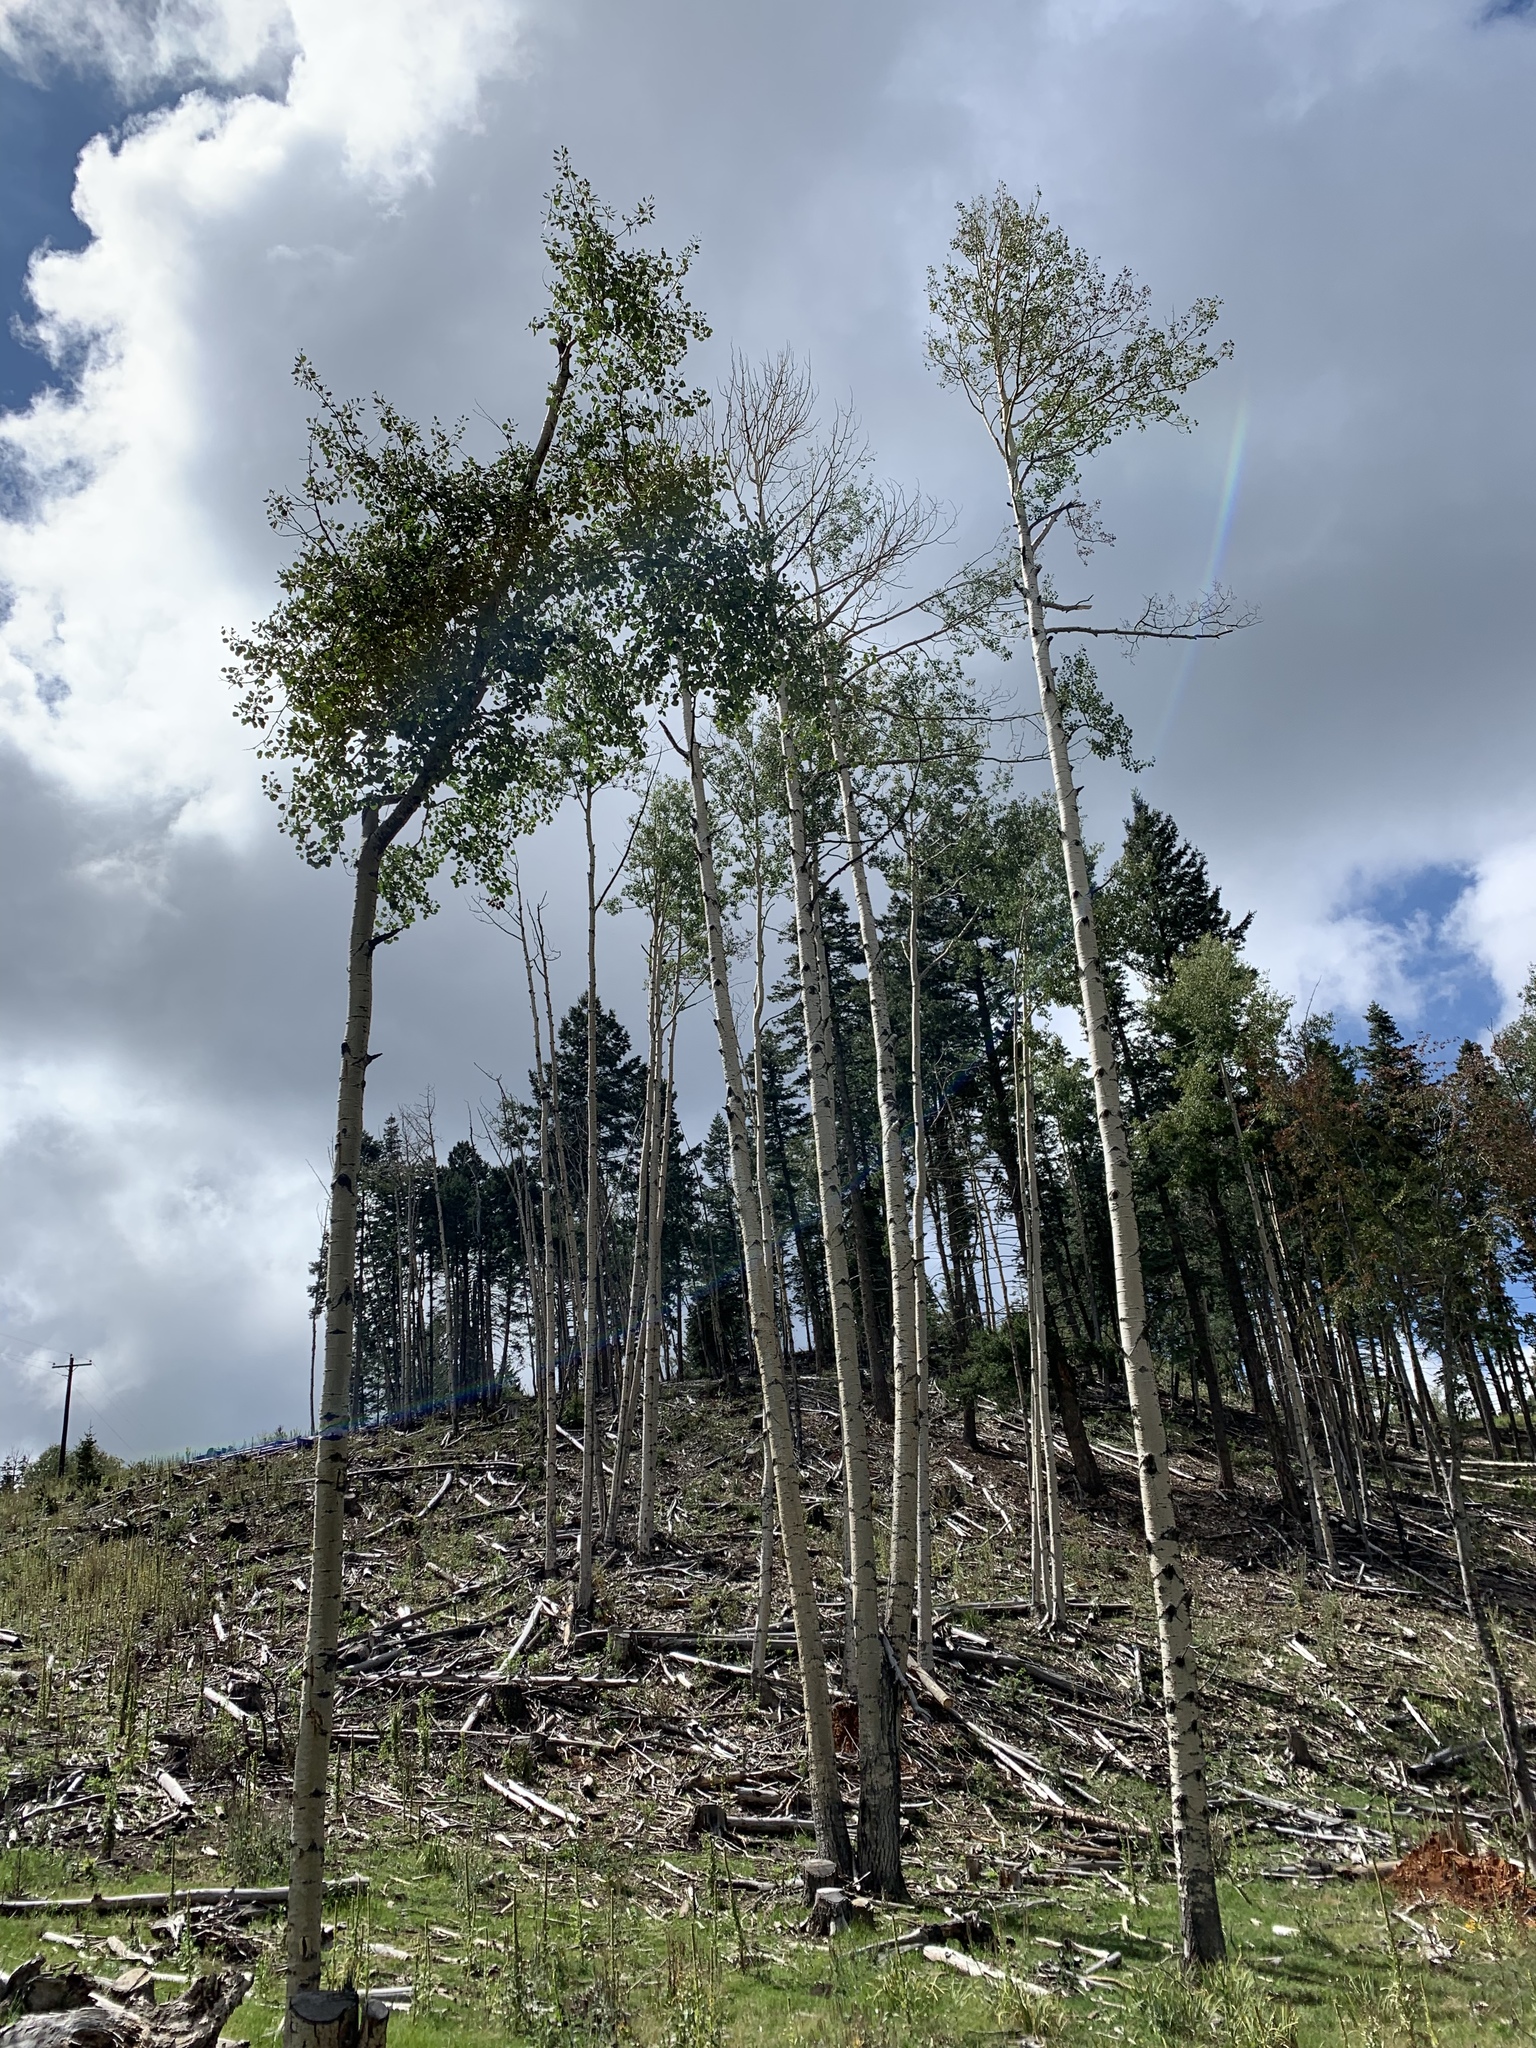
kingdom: Plantae
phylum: Tracheophyta
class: Magnoliopsida
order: Malpighiales
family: Salicaceae
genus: Populus
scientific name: Populus tremuloides
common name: Quaking aspen
